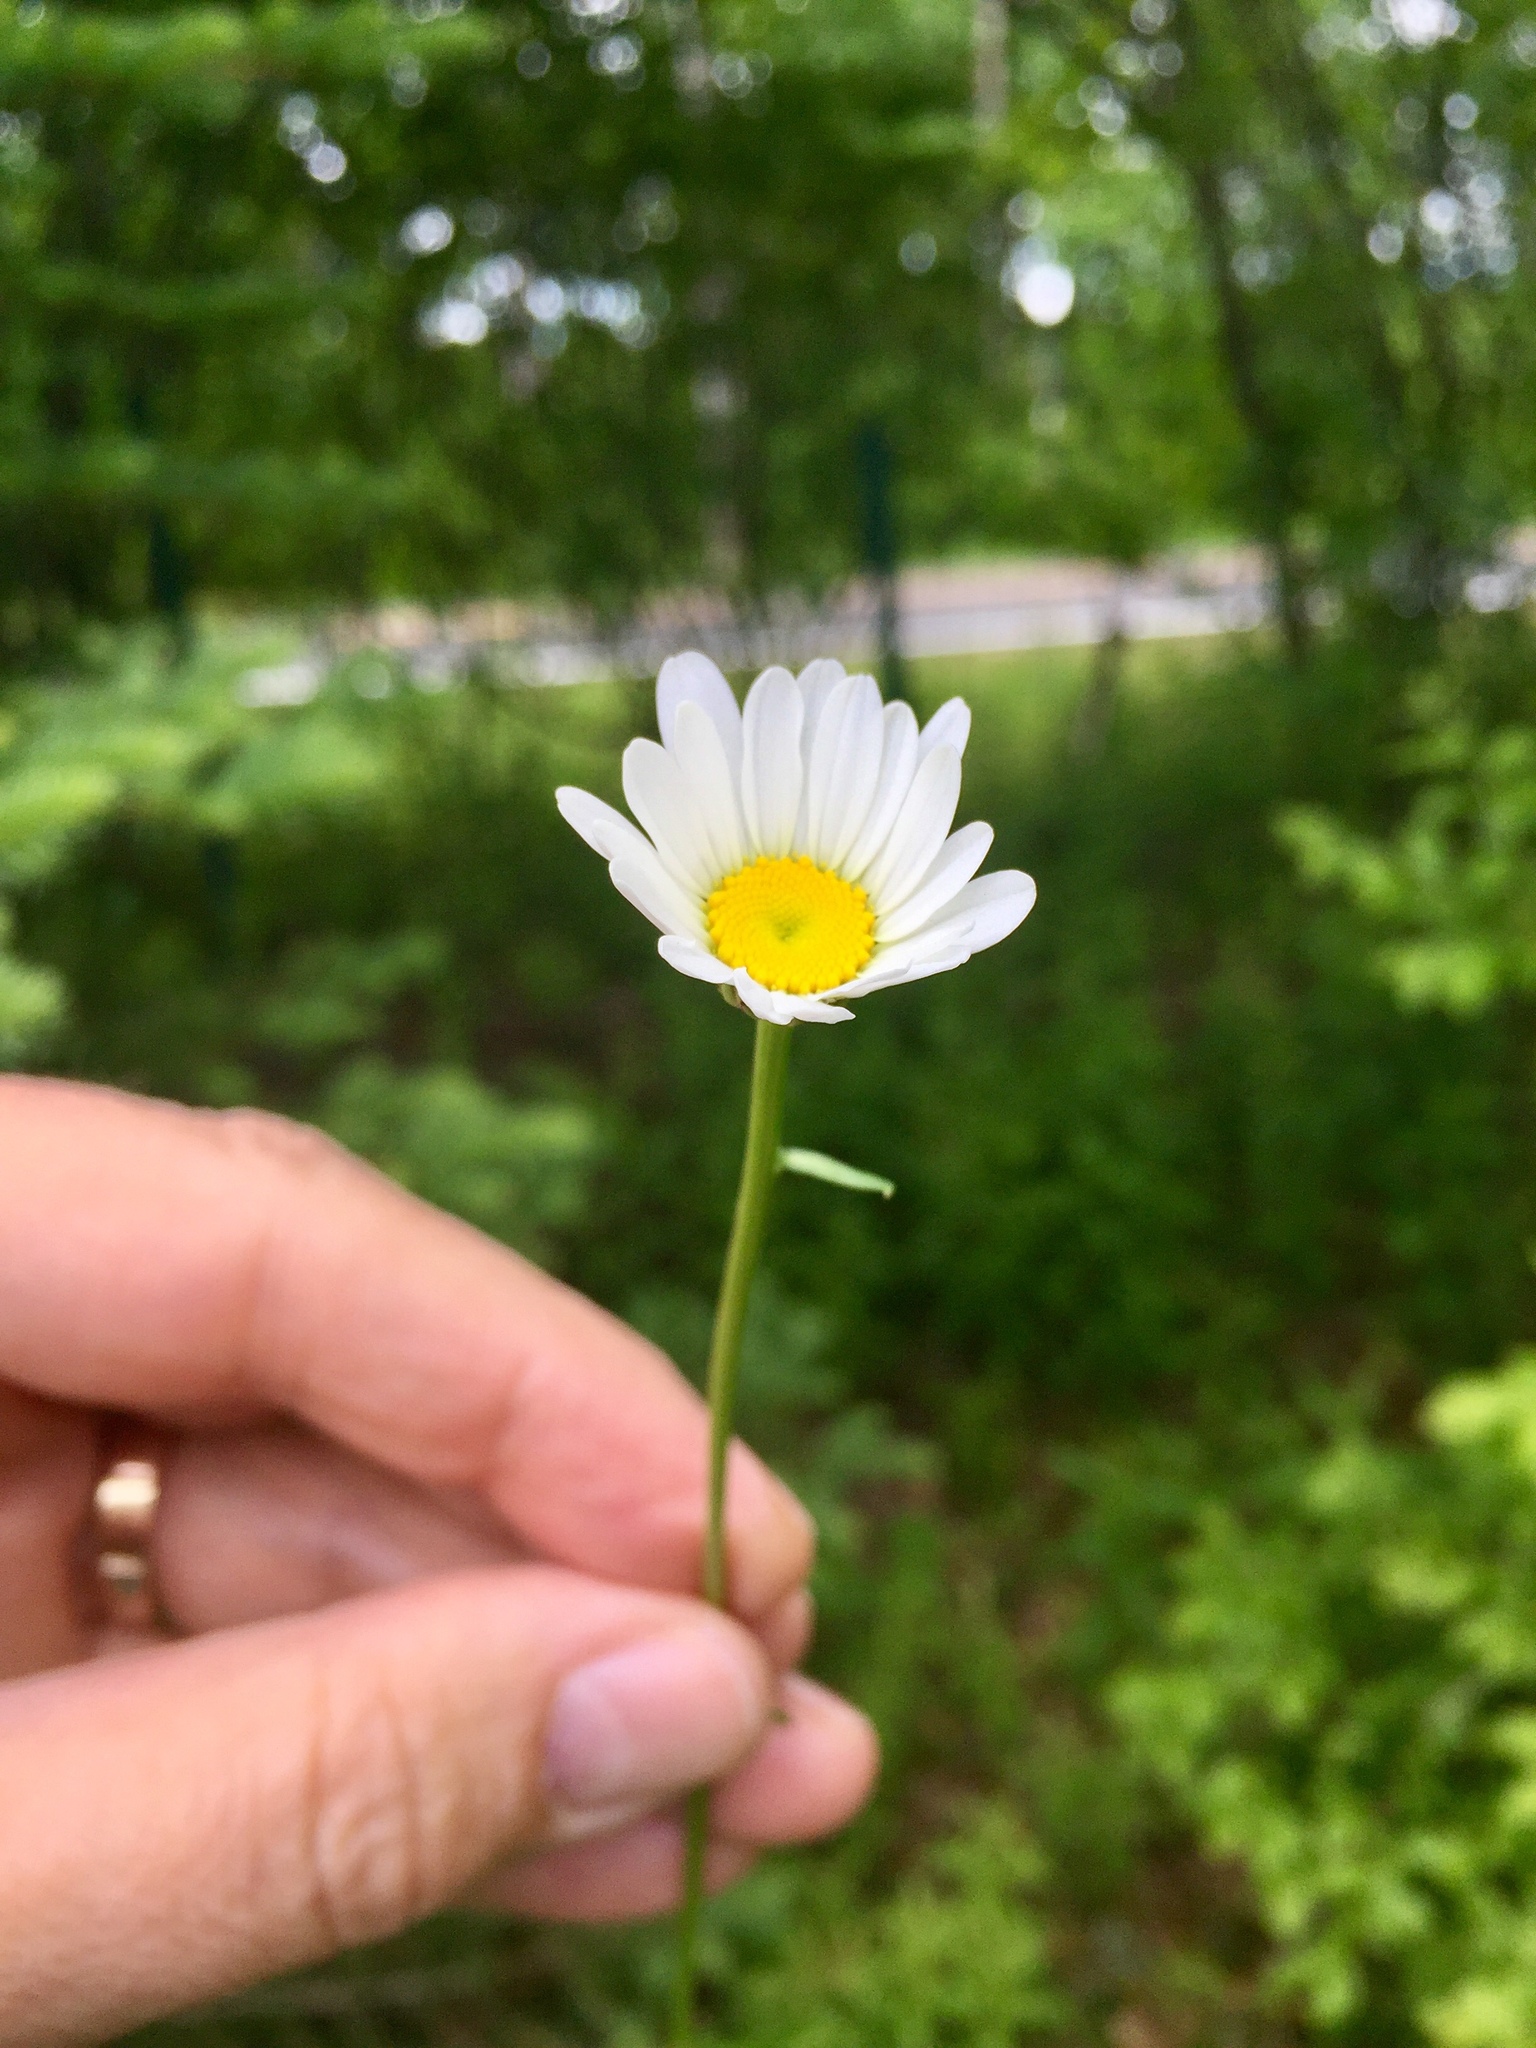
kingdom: Plantae
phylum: Tracheophyta
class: Magnoliopsida
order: Asterales
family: Asteraceae
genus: Leucanthemum
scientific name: Leucanthemum vulgare
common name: Oxeye daisy
